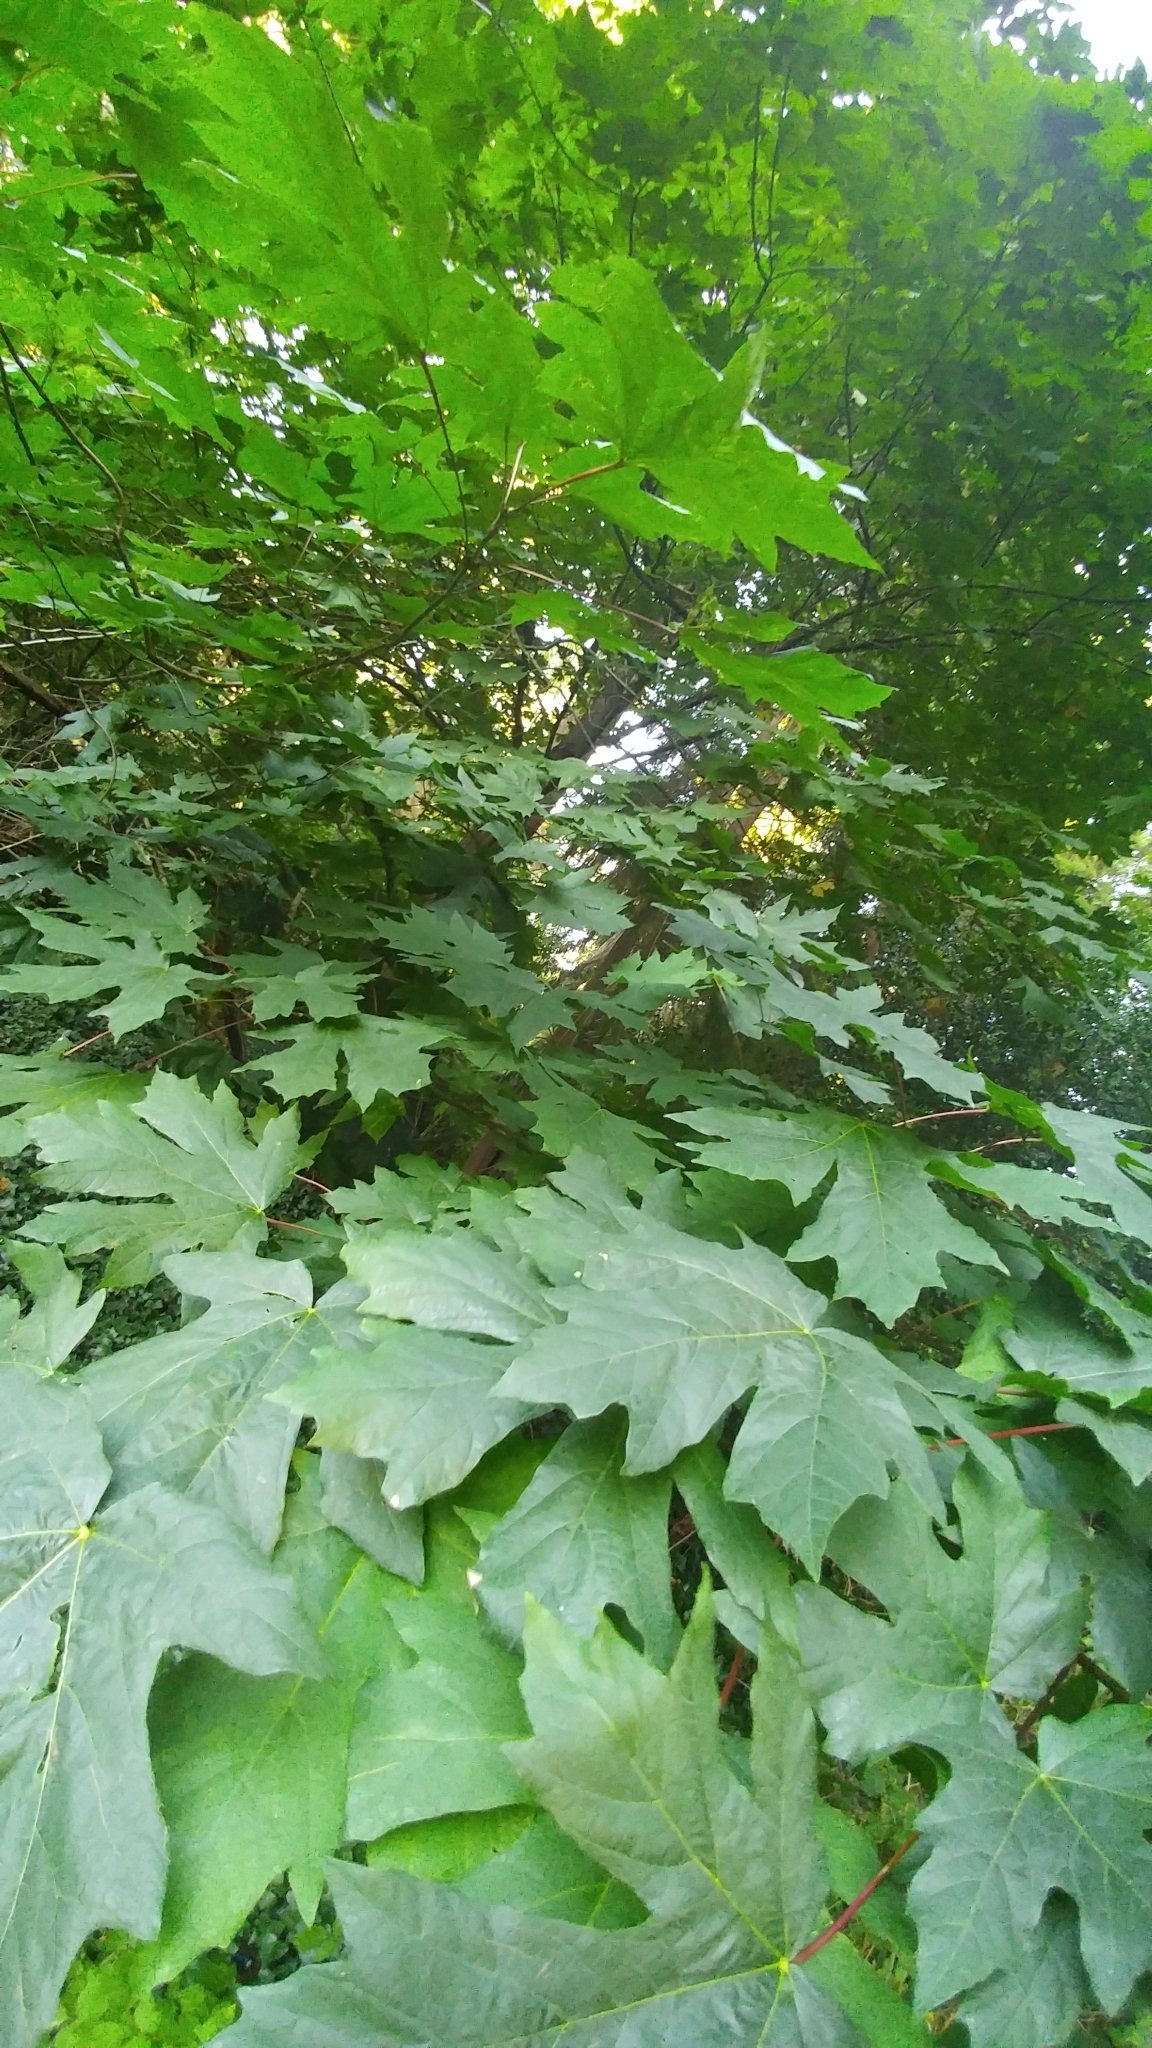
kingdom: Plantae
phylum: Tracheophyta
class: Magnoliopsida
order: Sapindales
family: Sapindaceae
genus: Acer
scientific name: Acer macrophyllum
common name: Oregon maple
